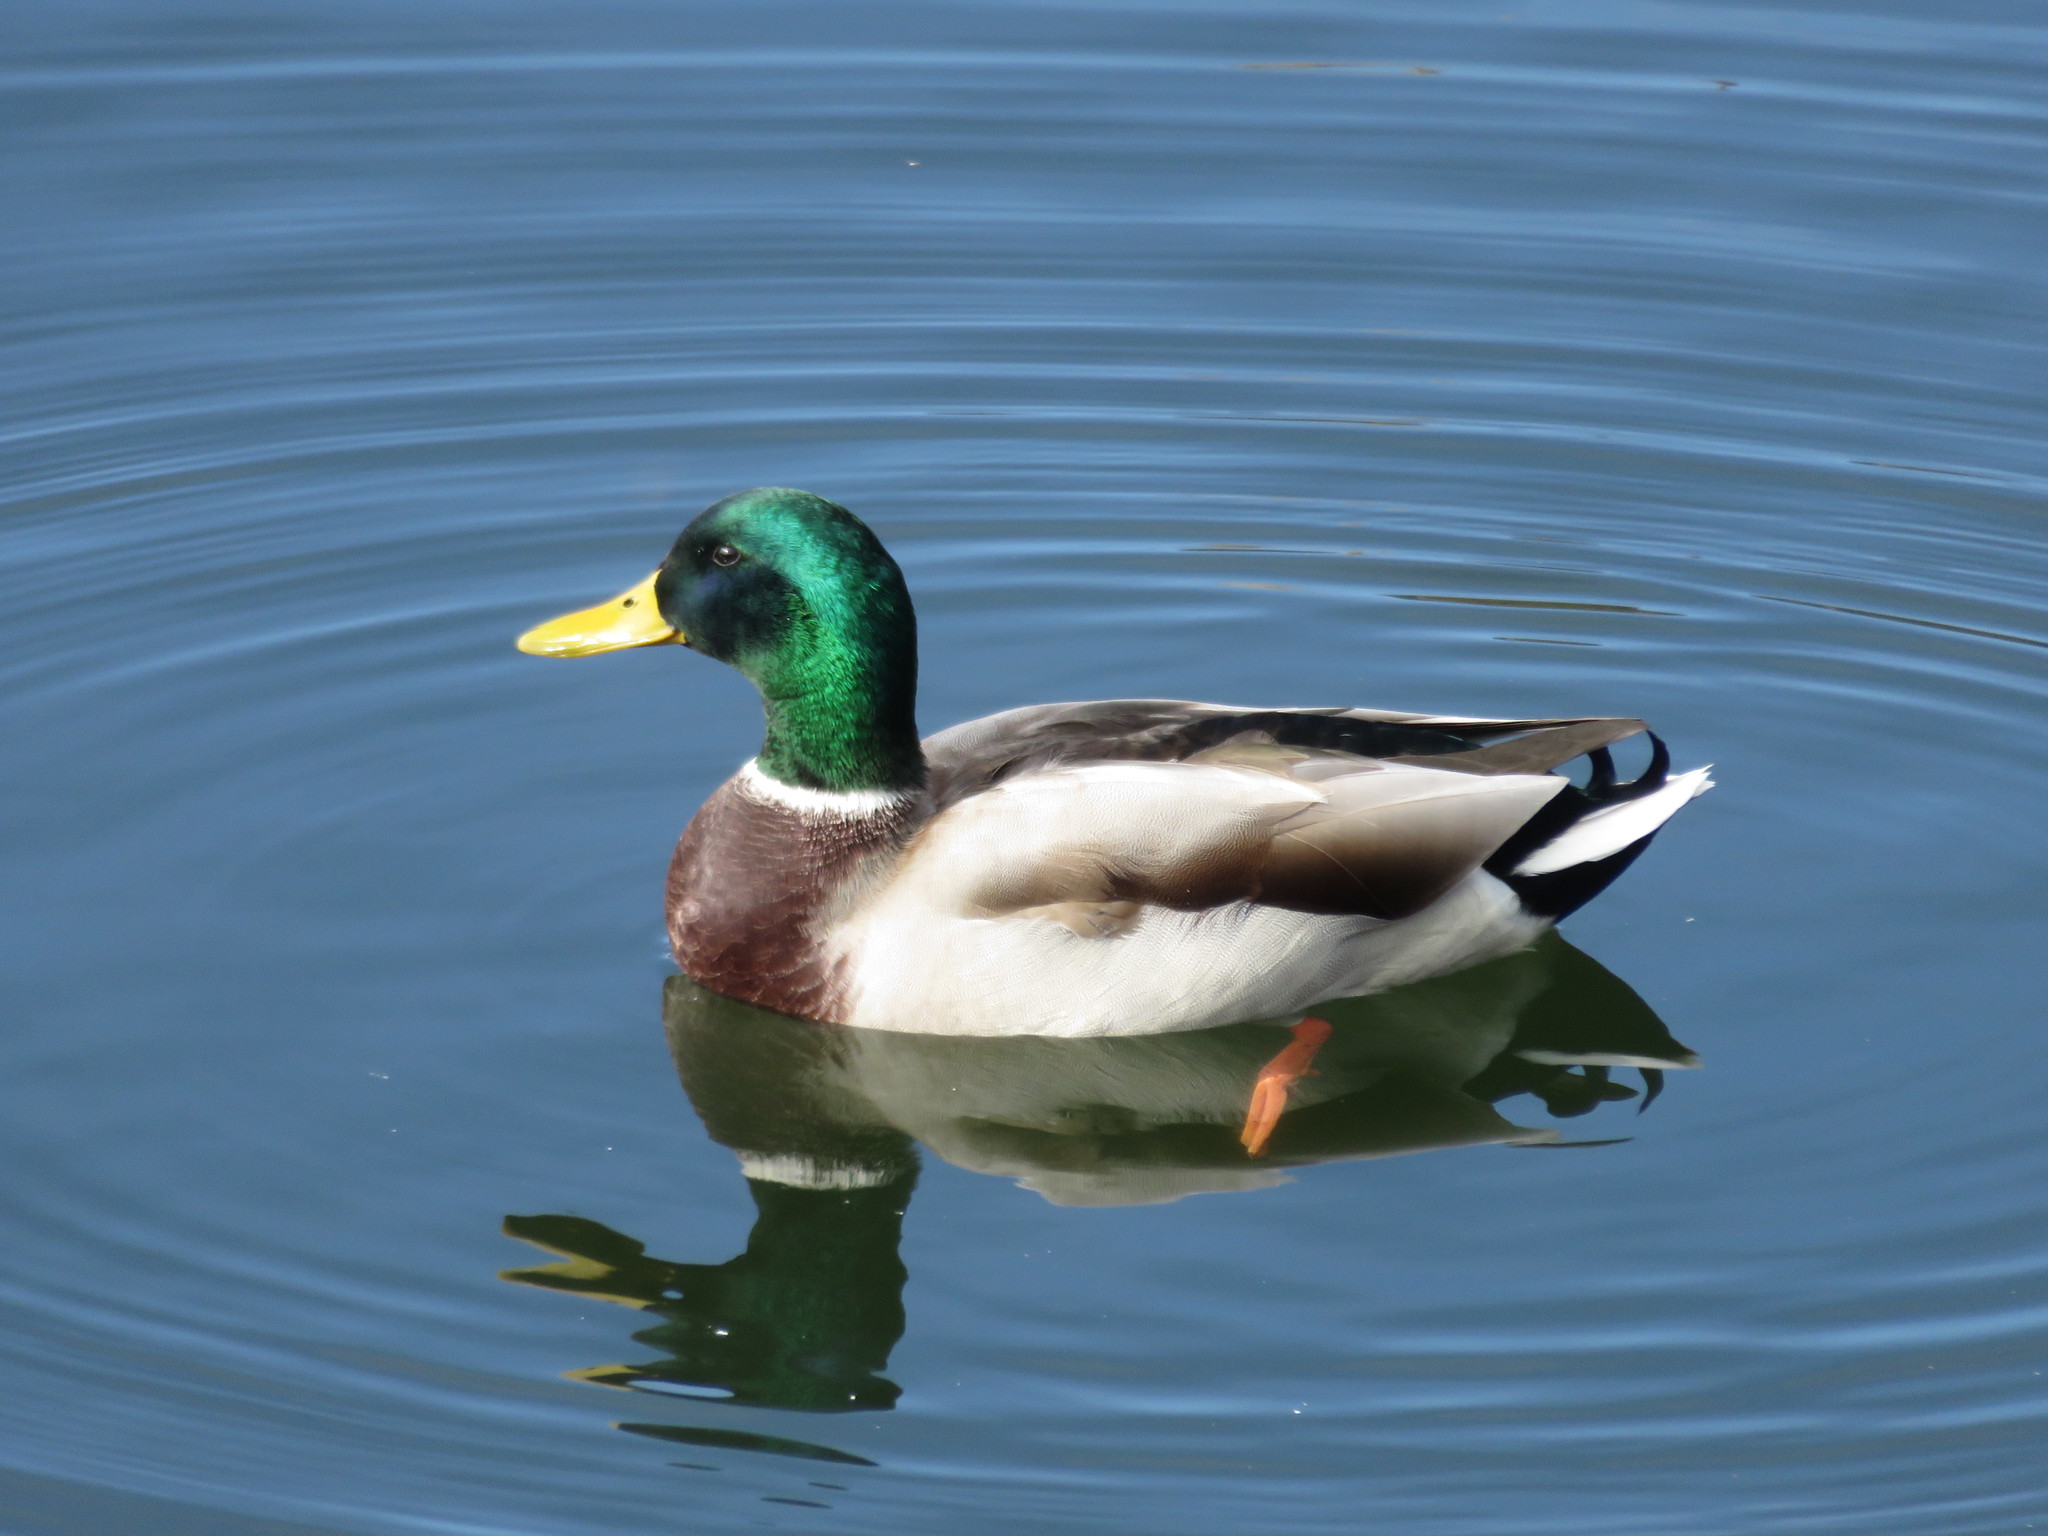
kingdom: Animalia
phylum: Chordata
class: Aves
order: Anseriformes
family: Anatidae
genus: Anas
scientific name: Anas platyrhynchos
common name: Mallard
